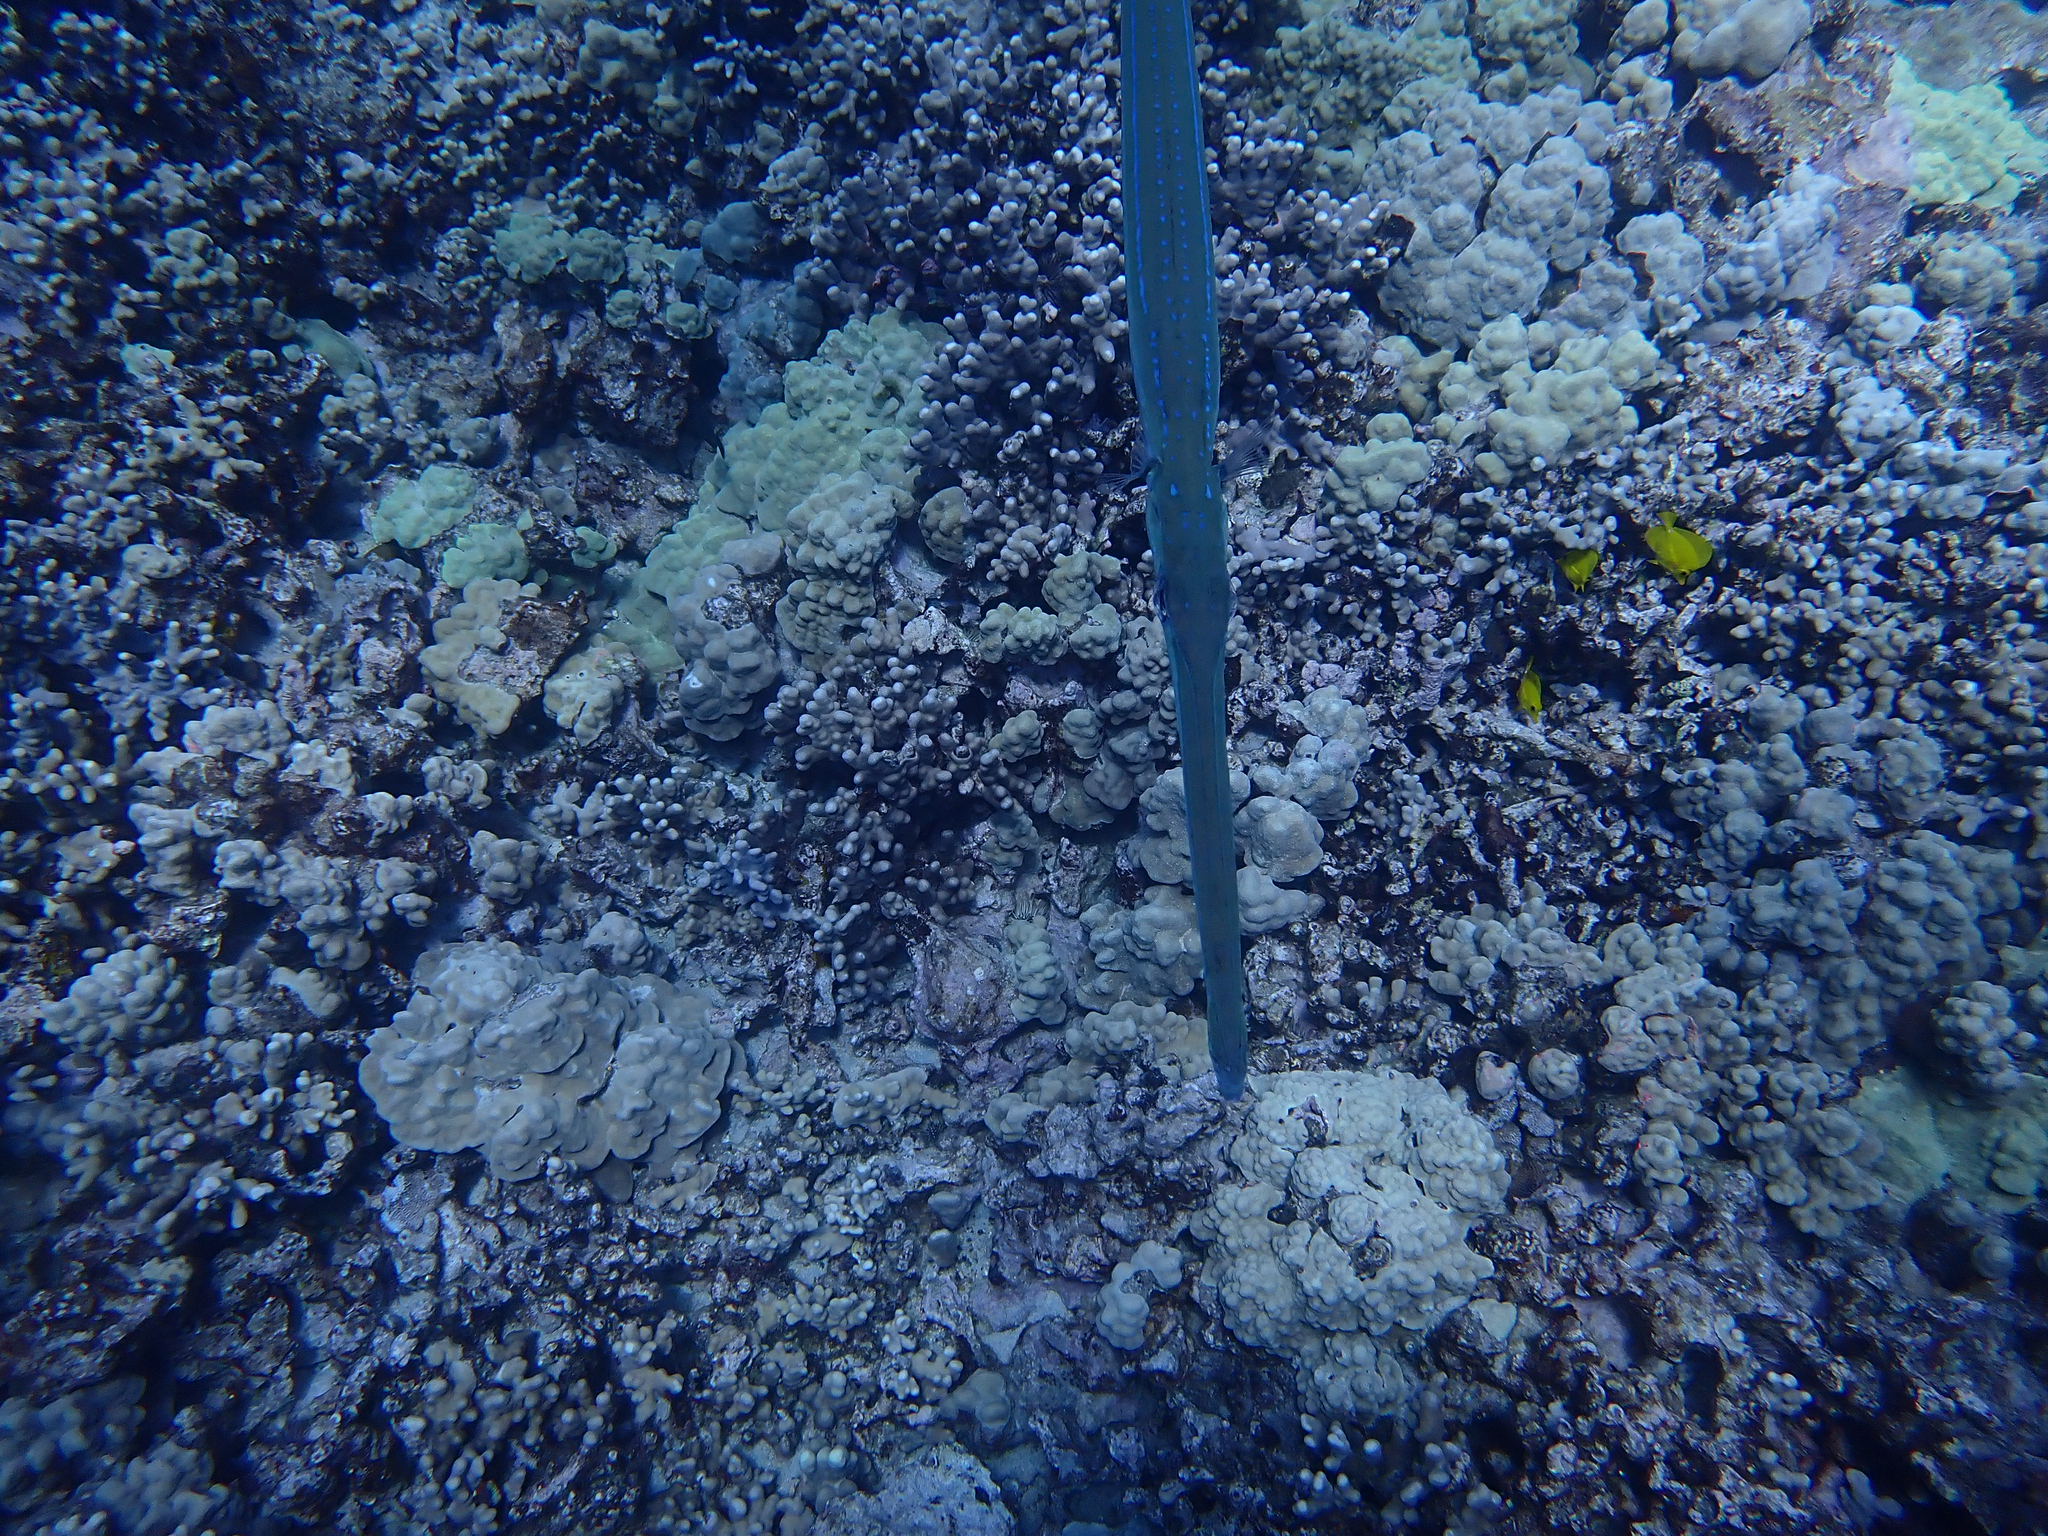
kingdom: Animalia
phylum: Chordata
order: Syngnathiformes
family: Fistulariidae
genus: Fistularia
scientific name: Fistularia commersonii
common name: Bluespotted cornetfish
